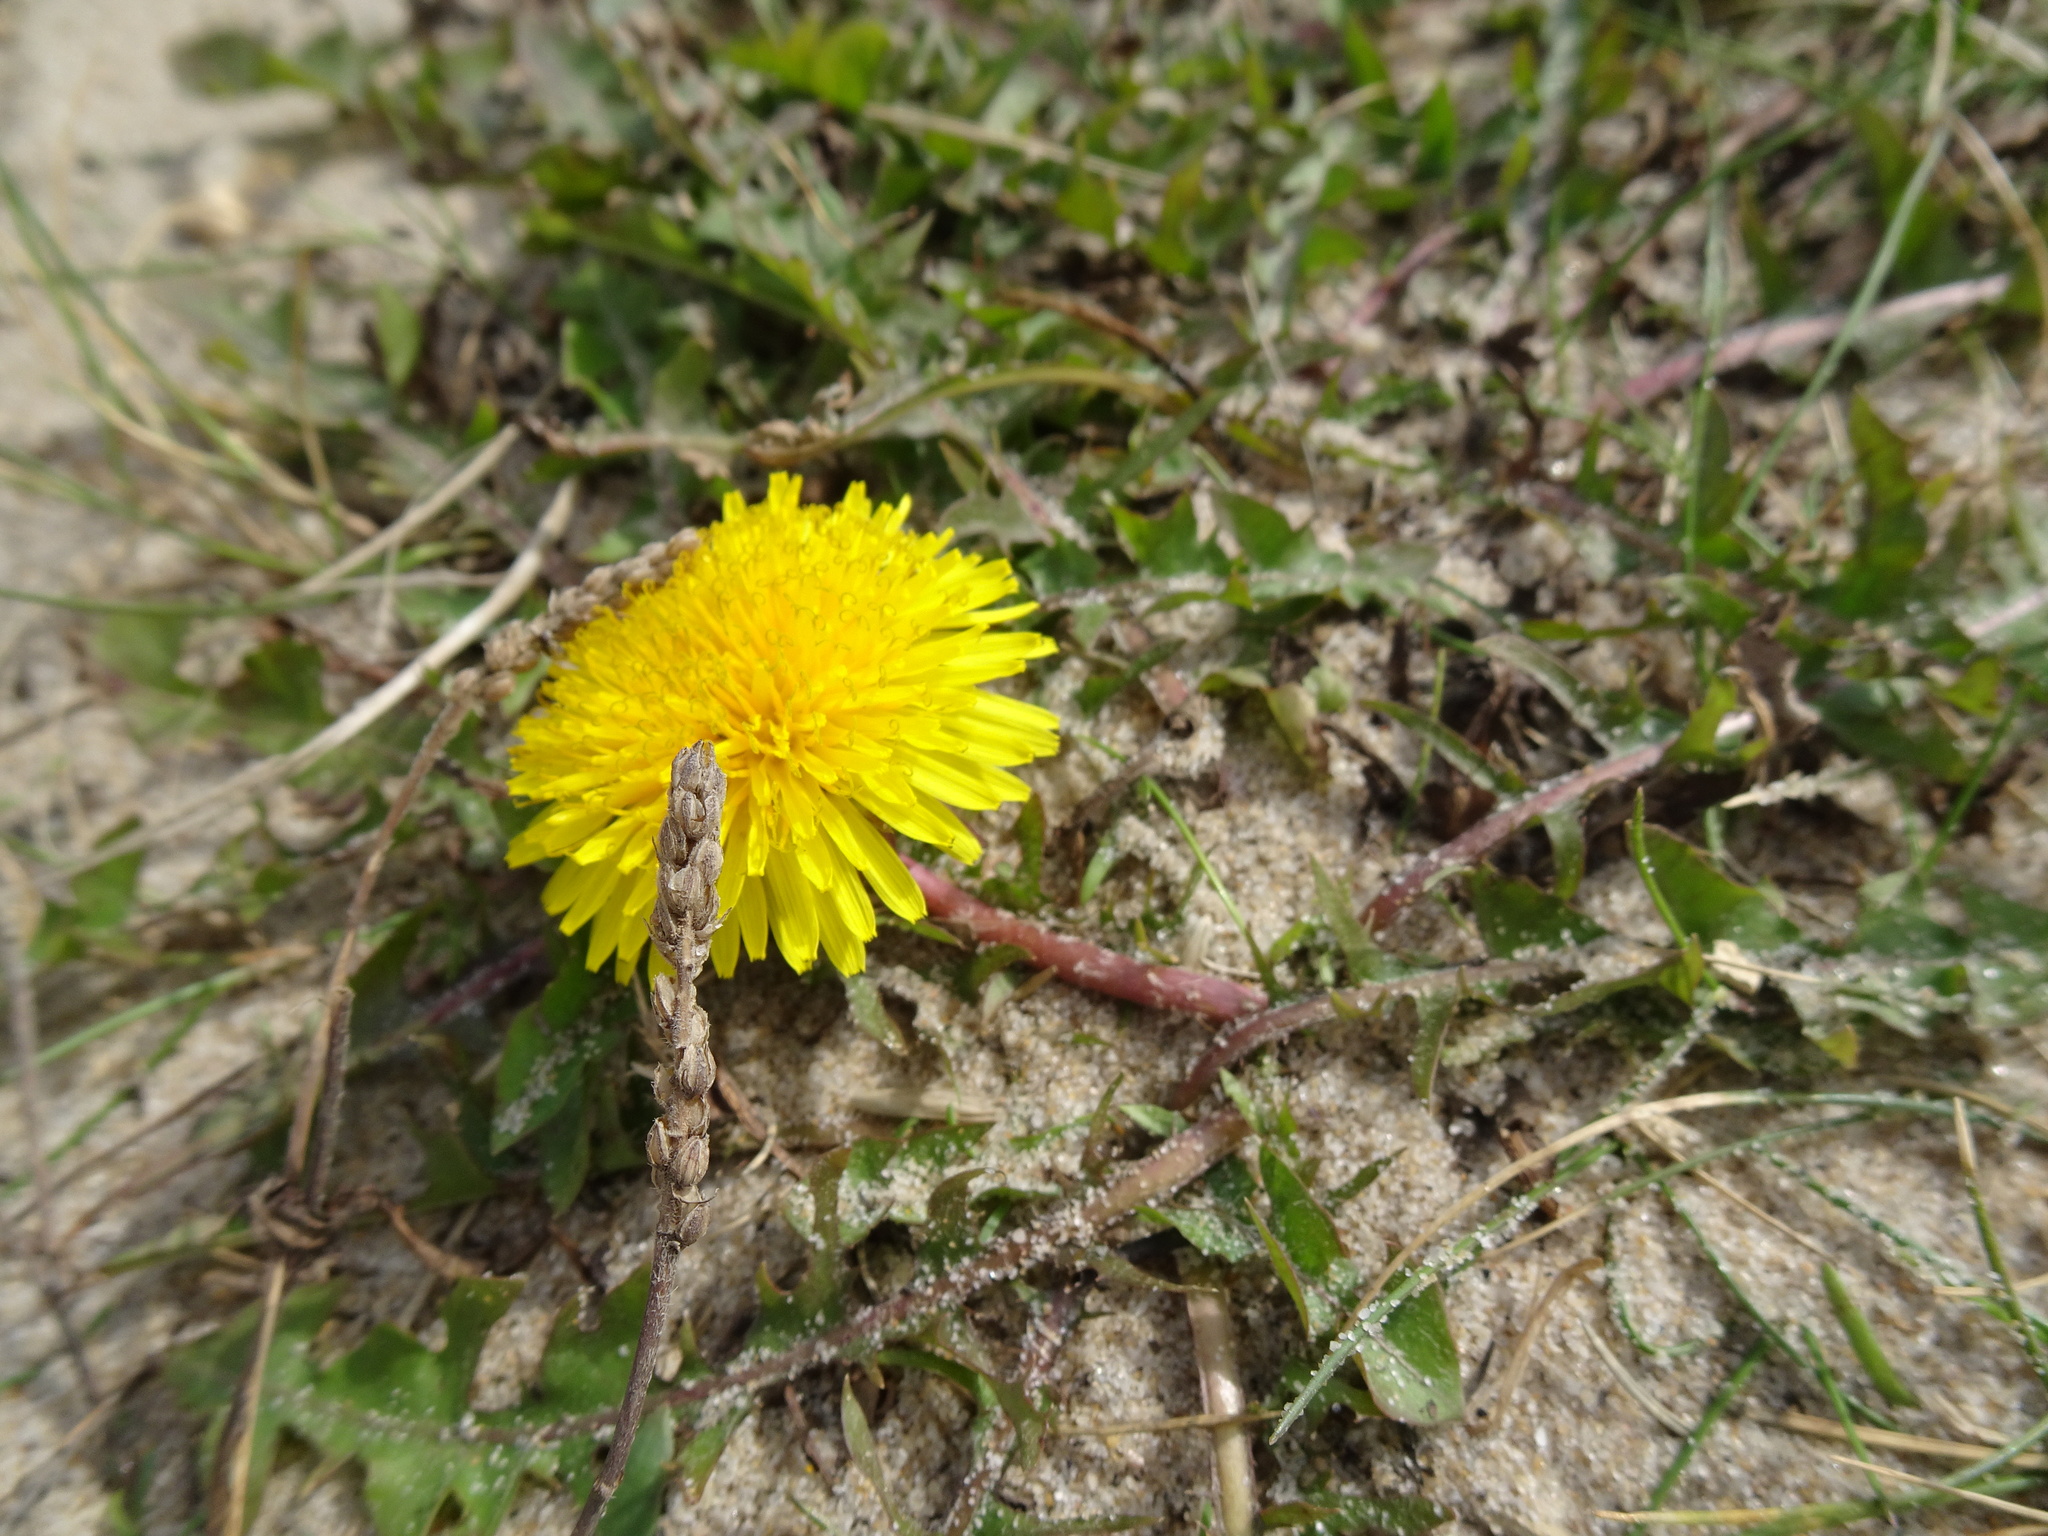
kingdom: Plantae
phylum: Tracheophyta
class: Magnoliopsida
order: Asterales
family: Asteraceae
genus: Taraxacum
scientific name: Taraxacum officinale
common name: Common dandelion
